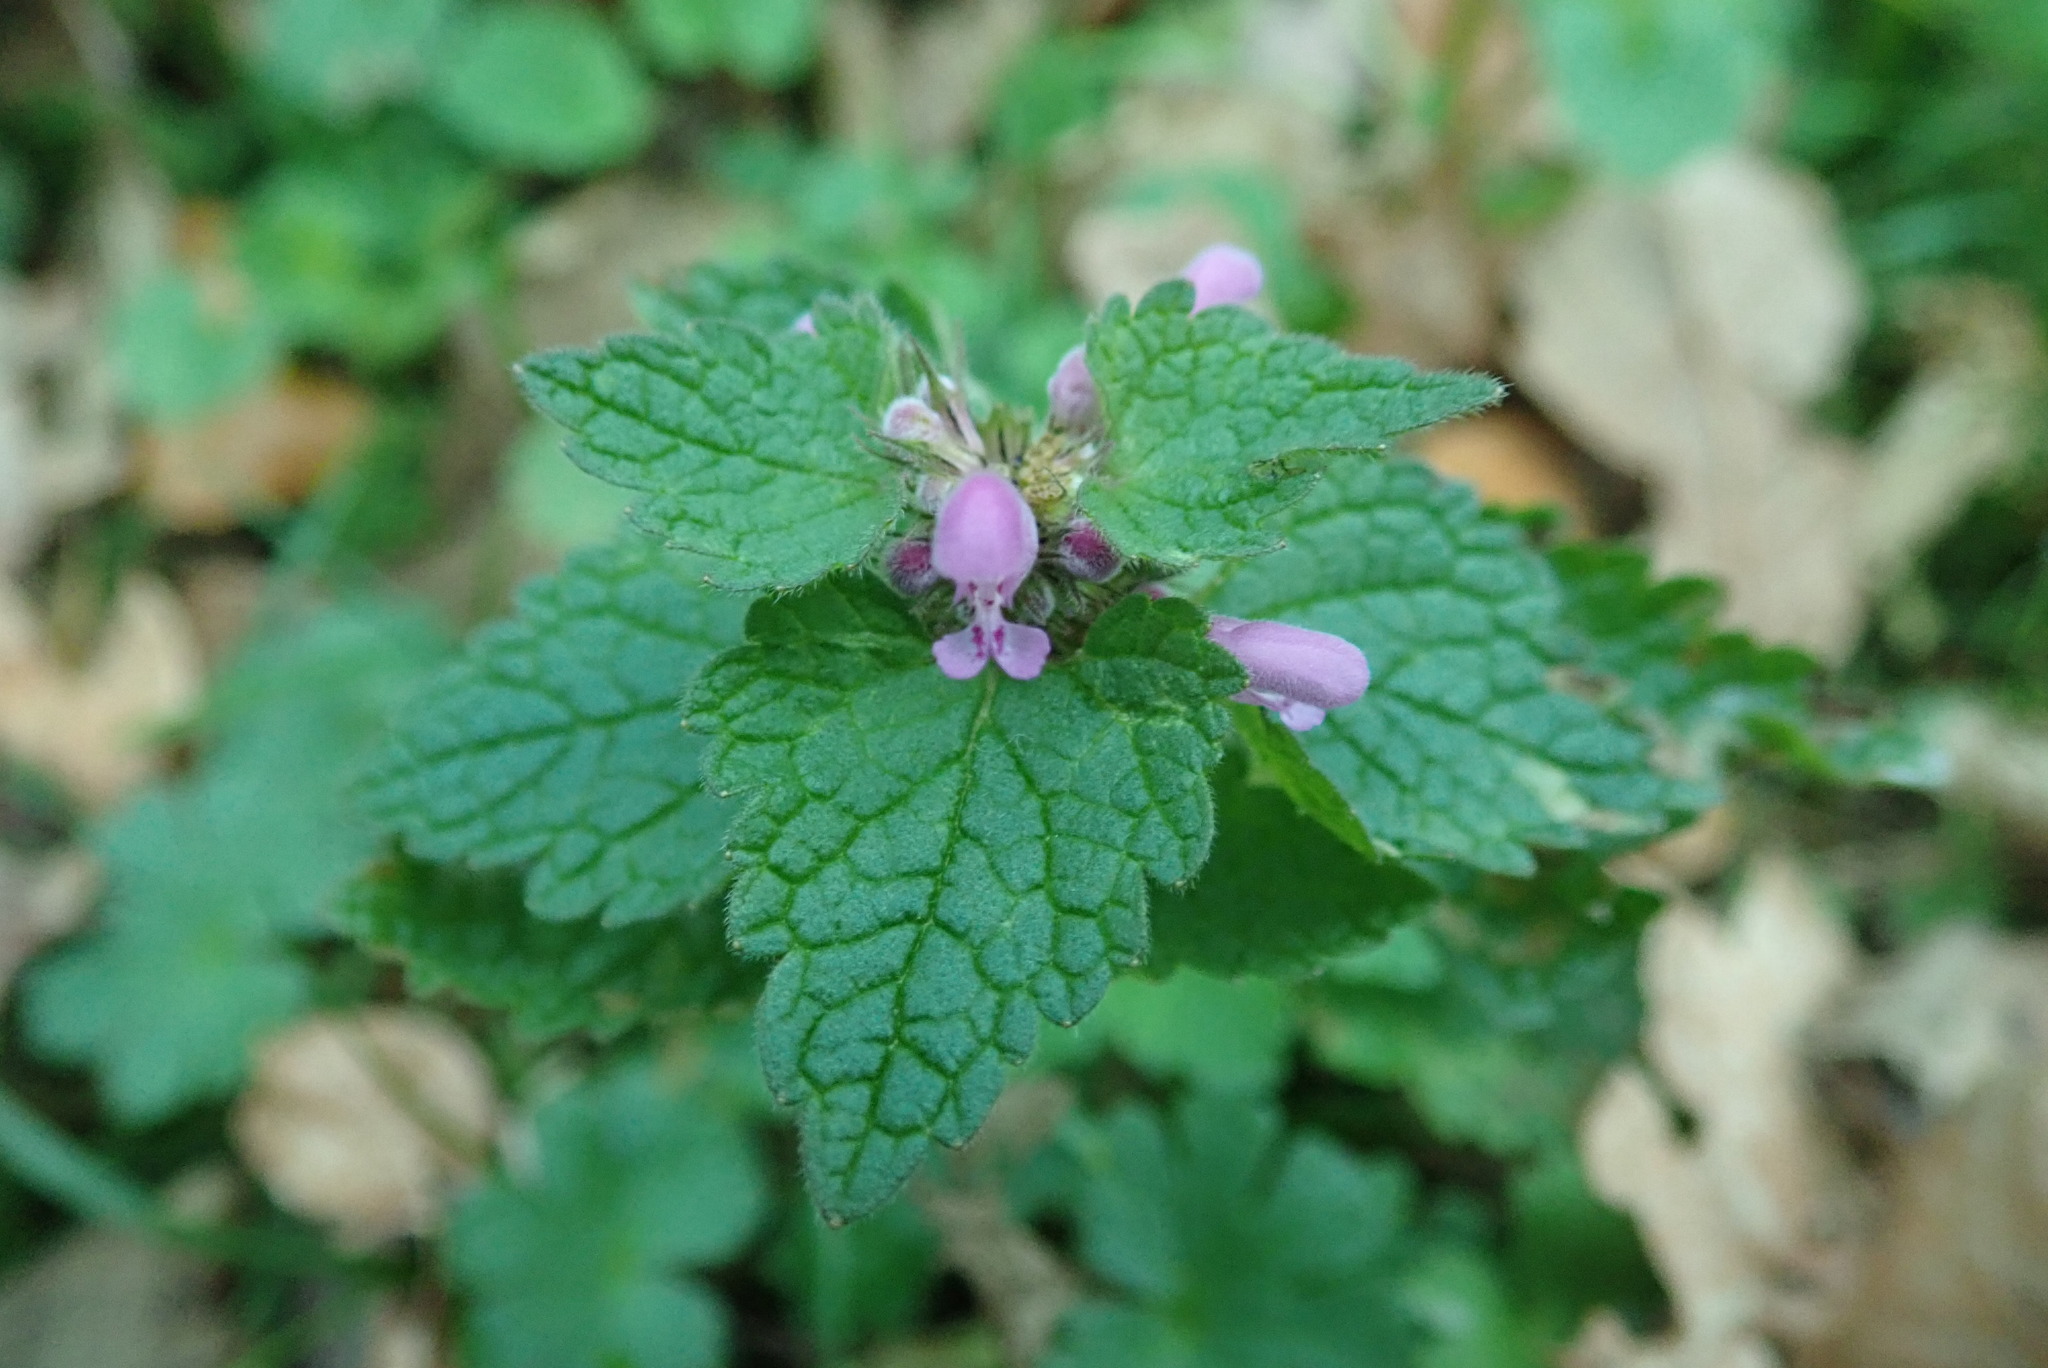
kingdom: Plantae
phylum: Tracheophyta
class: Magnoliopsida
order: Lamiales
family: Lamiaceae
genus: Lamium
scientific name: Lamium purpureum
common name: Red dead-nettle
